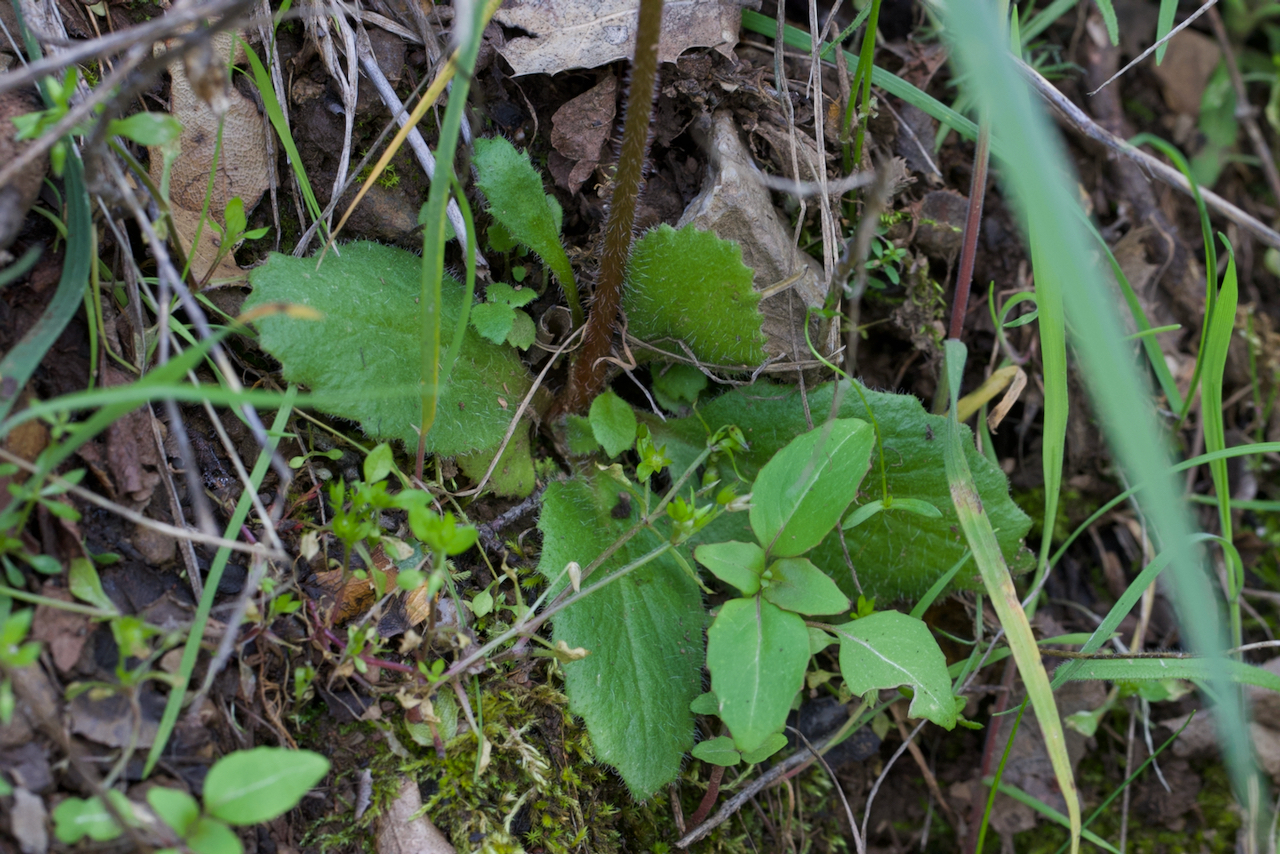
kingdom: Plantae
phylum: Tracheophyta
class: Magnoliopsida
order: Saxifragales
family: Saxifragaceae
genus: Micranthes
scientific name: Micranthes californica
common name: California saxifrage
